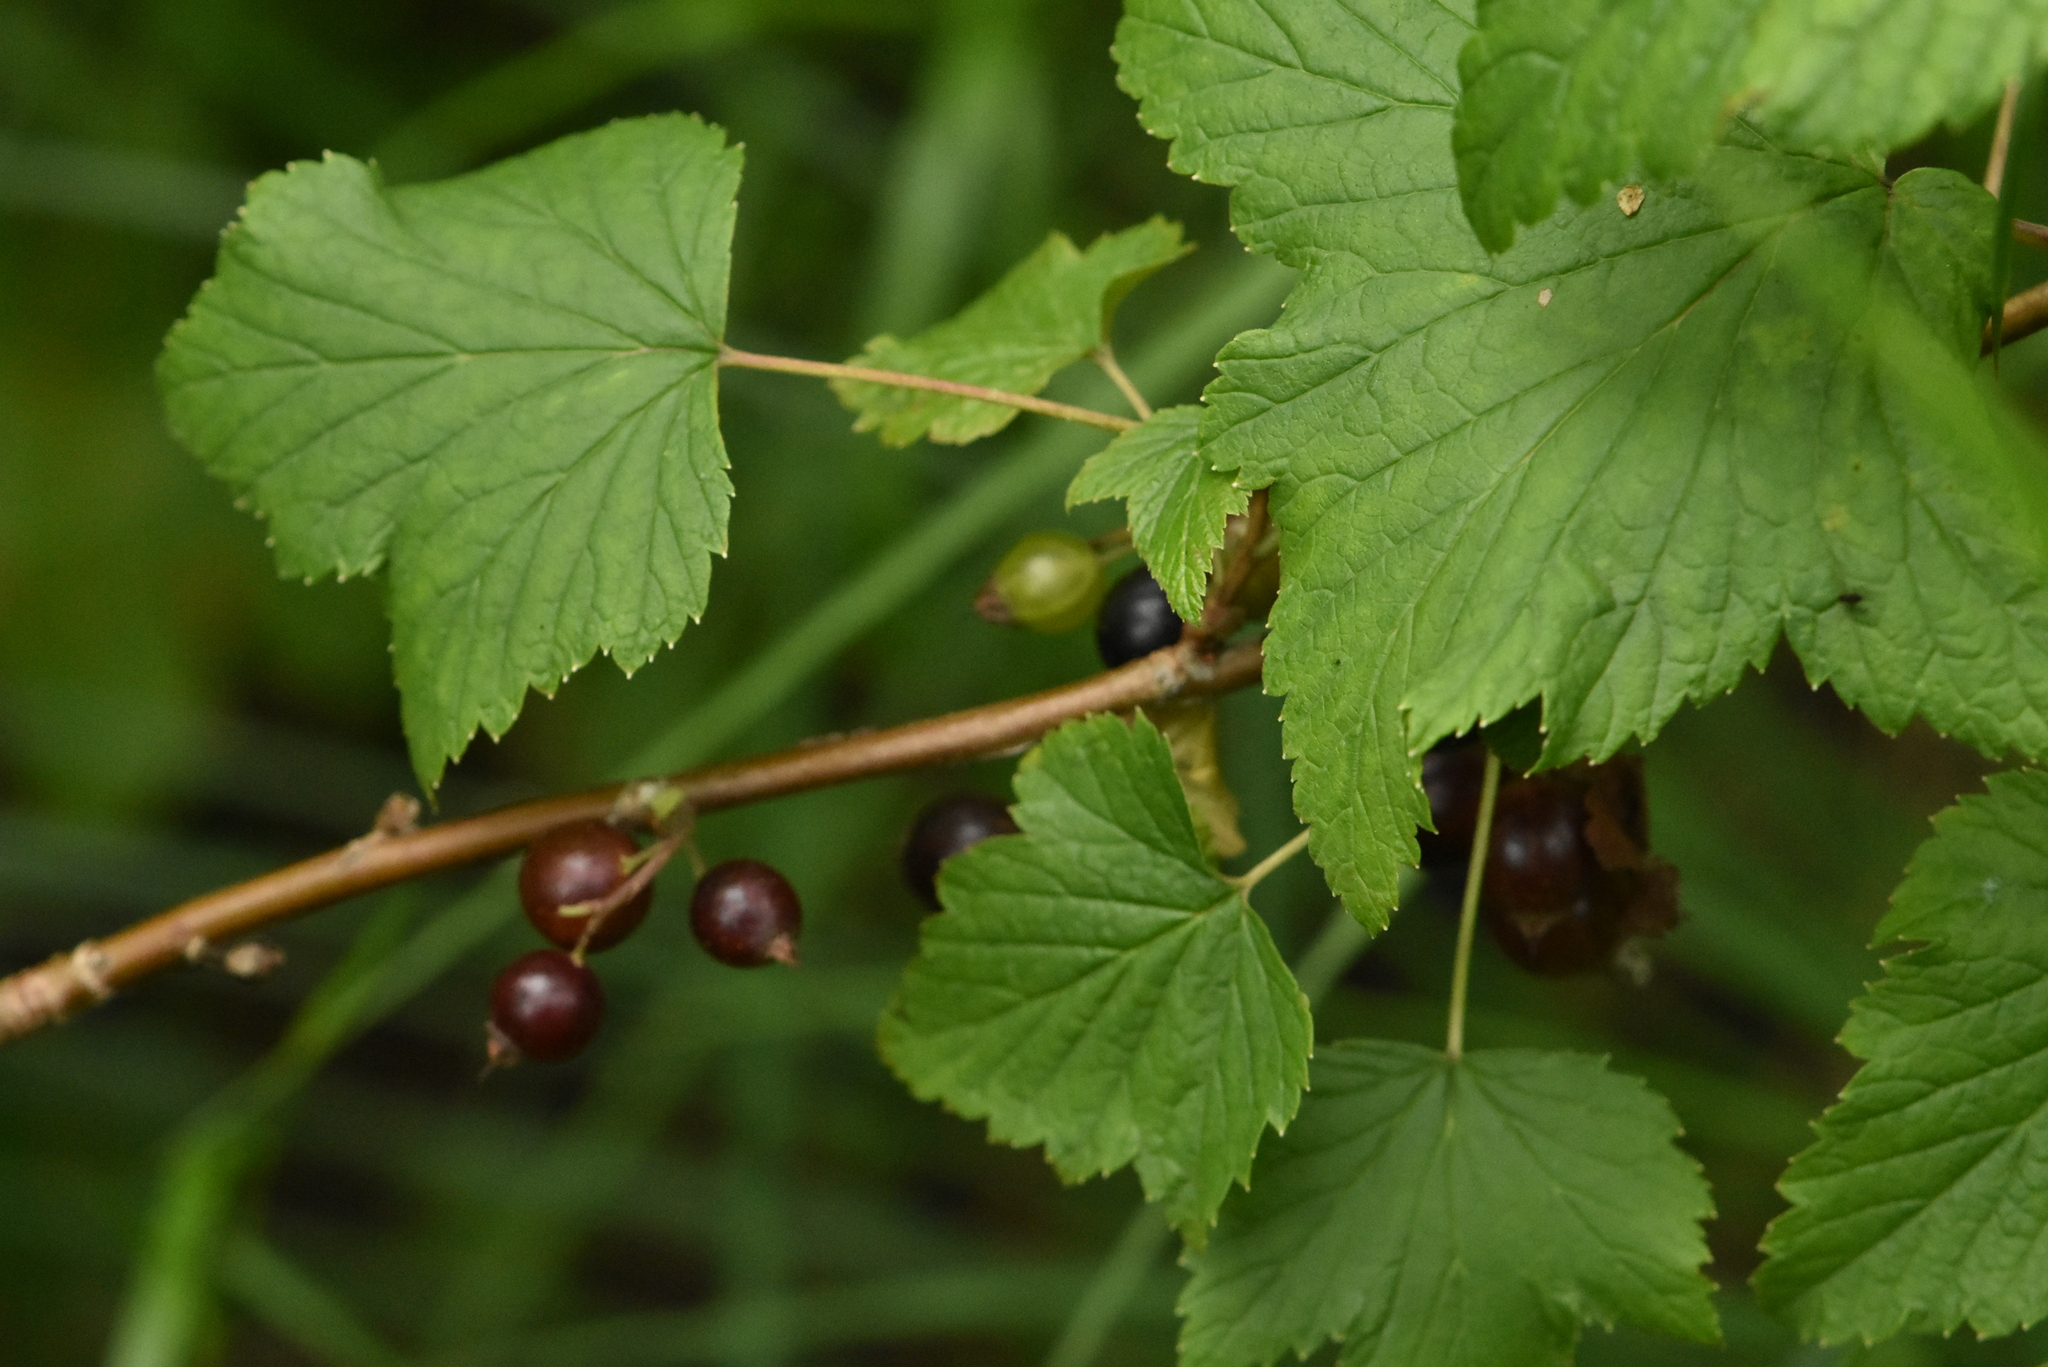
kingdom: Plantae
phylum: Tracheophyta
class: Magnoliopsida
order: Saxifragales
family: Grossulariaceae
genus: Ribes
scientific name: Ribes nigrum
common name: Black currant
